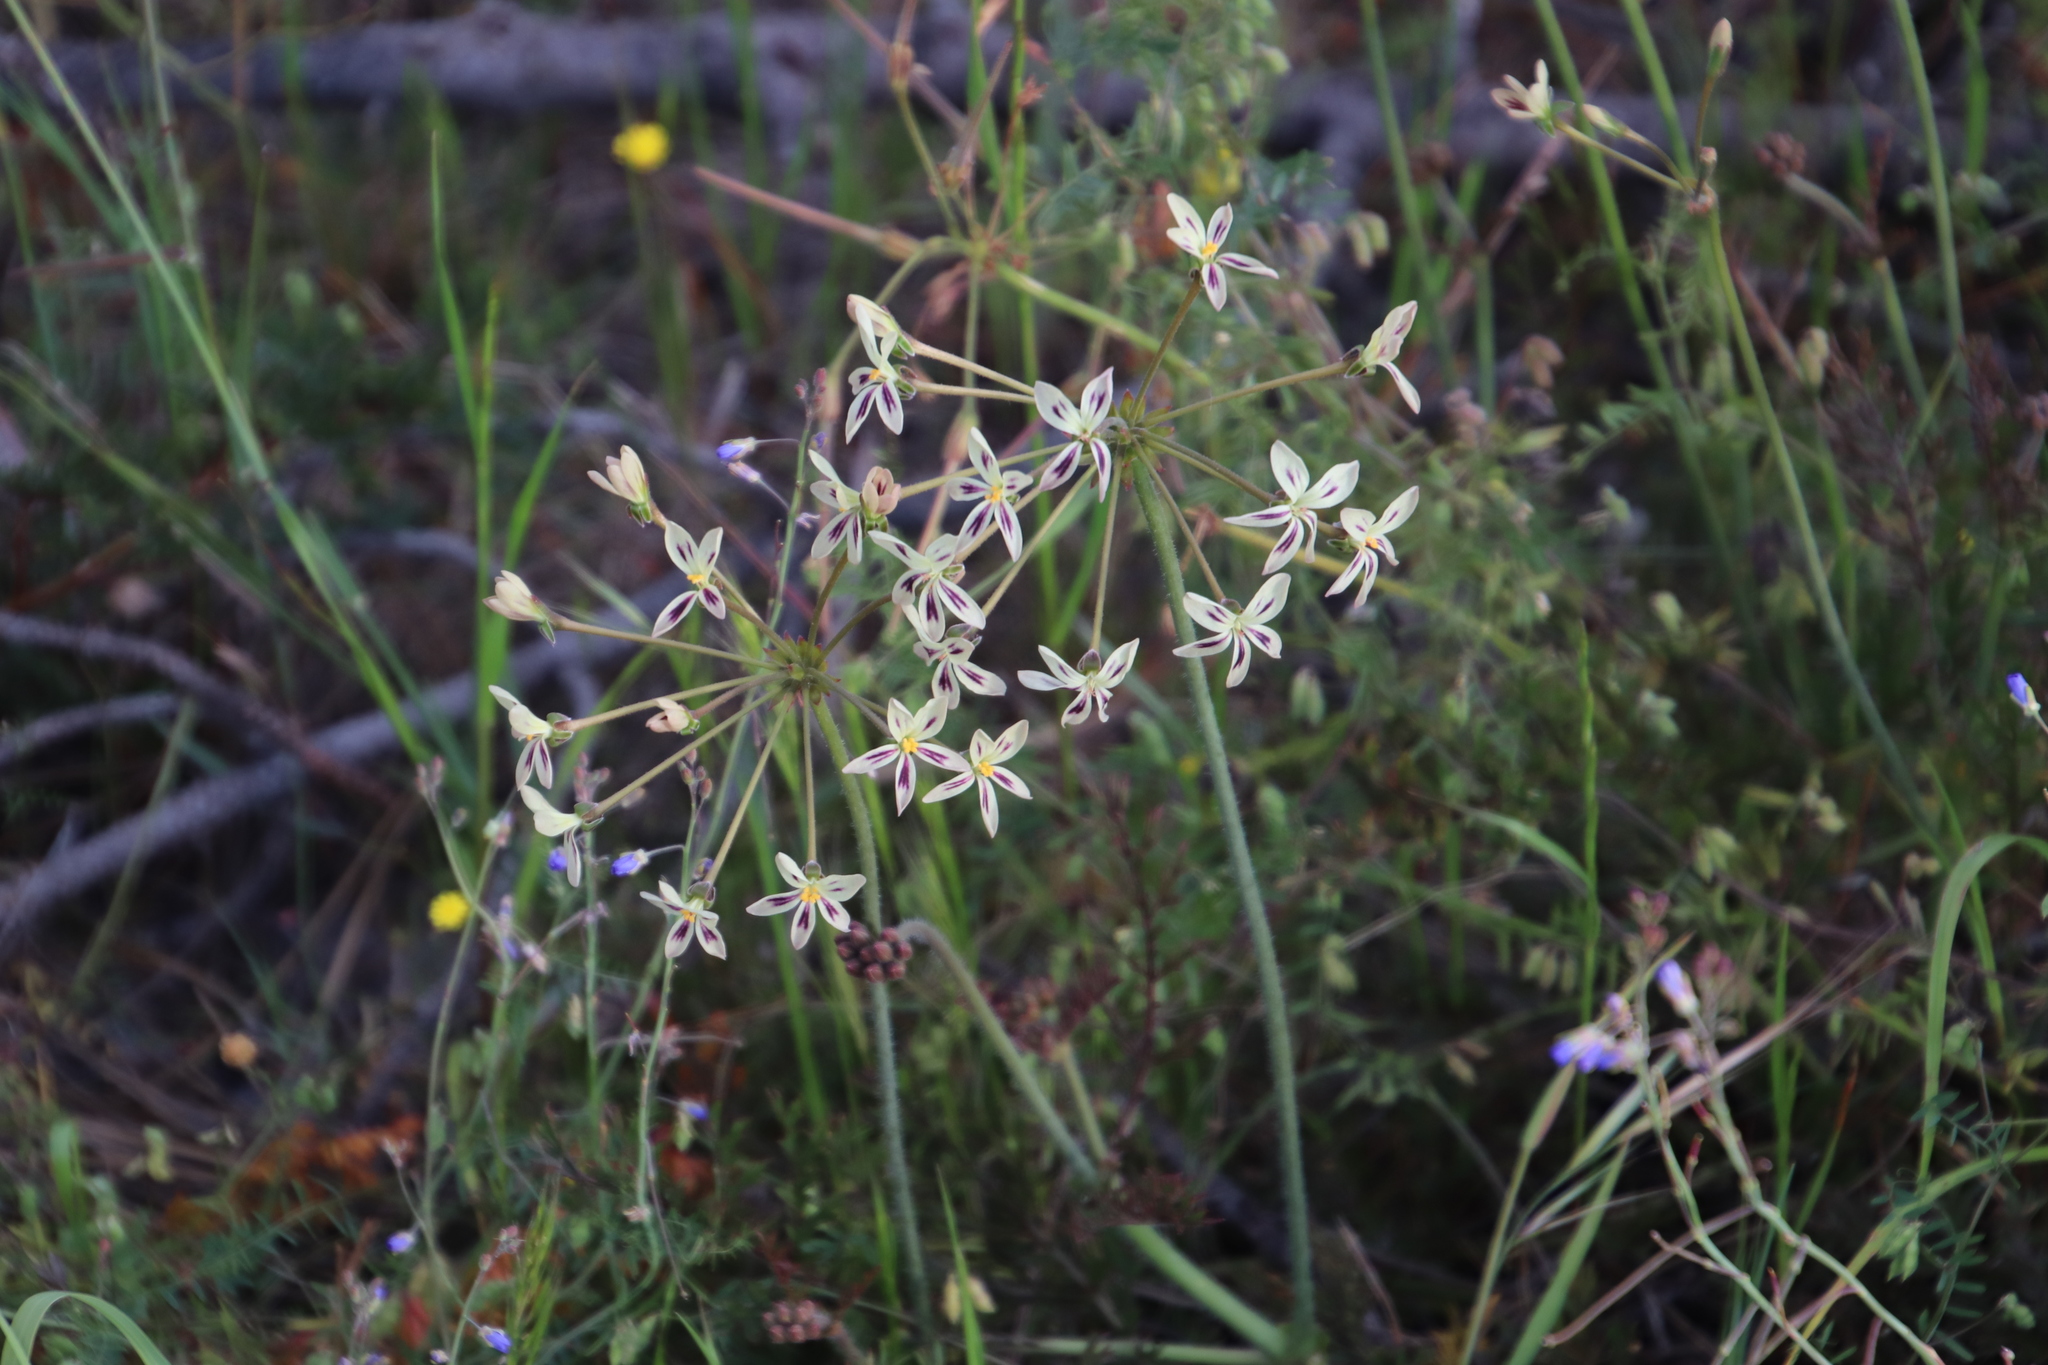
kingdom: Plantae
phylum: Tracheophyta
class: Magnoliopsida
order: Geraniales
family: Geraniaceae
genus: Pelargonium
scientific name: Pelargonium triste
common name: Night-scent pelargonium
